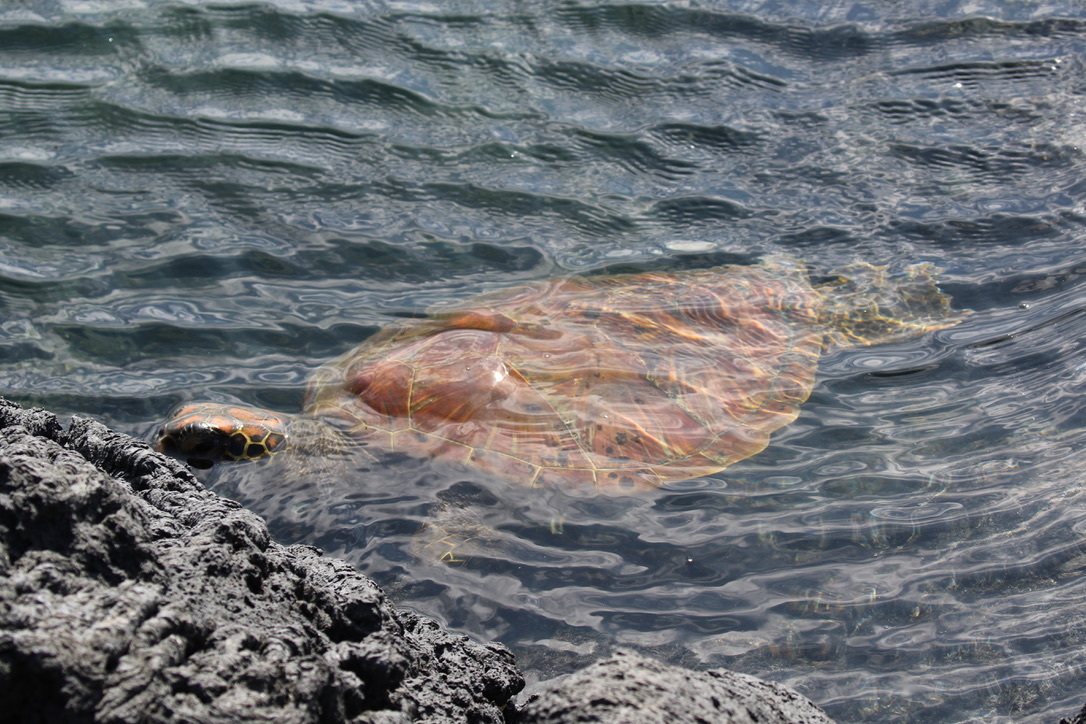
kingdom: Animalia
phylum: Chordata
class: Testudines
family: Cheloniidae
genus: Chelonia
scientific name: Chelonia mydas
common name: Green turtle
